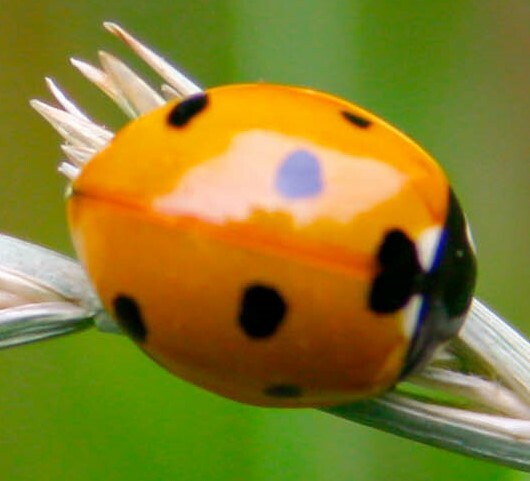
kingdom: Animalia
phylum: Arthropoda
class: Insecta
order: Coleoptera
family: Coccinellidae
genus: Coccinella
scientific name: Coccinella septempunctata
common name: Sevenspotted lady beetle
